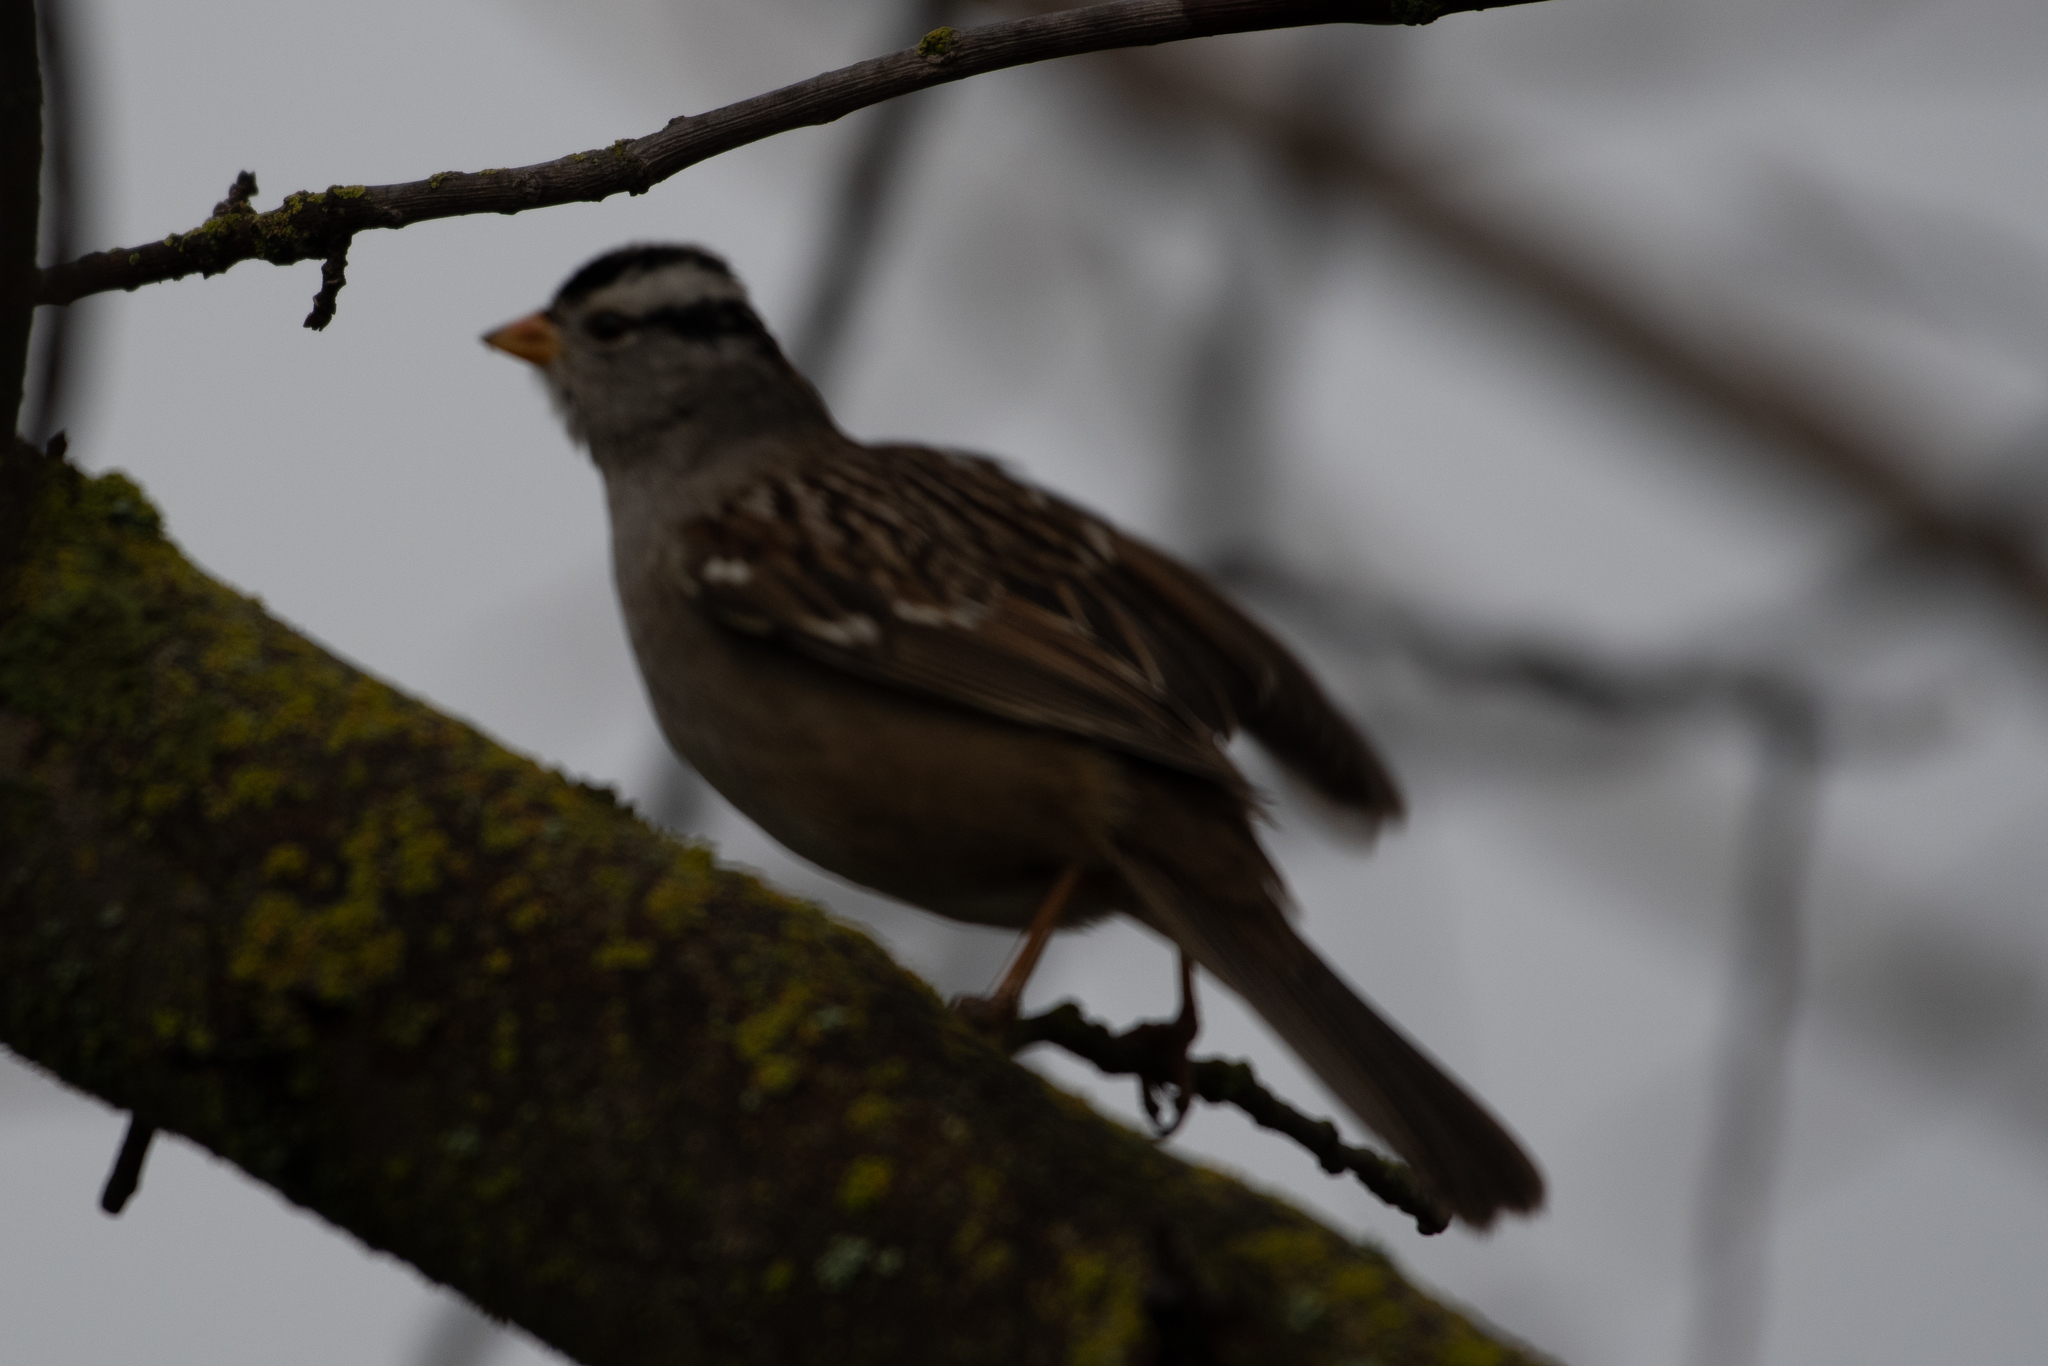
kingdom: Animalia
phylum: Chordata
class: Aves
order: Passeriformes
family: Passerellidae
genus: Zonotrichia
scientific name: Zonotrichia leucophrys
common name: White-crowned sparrow
